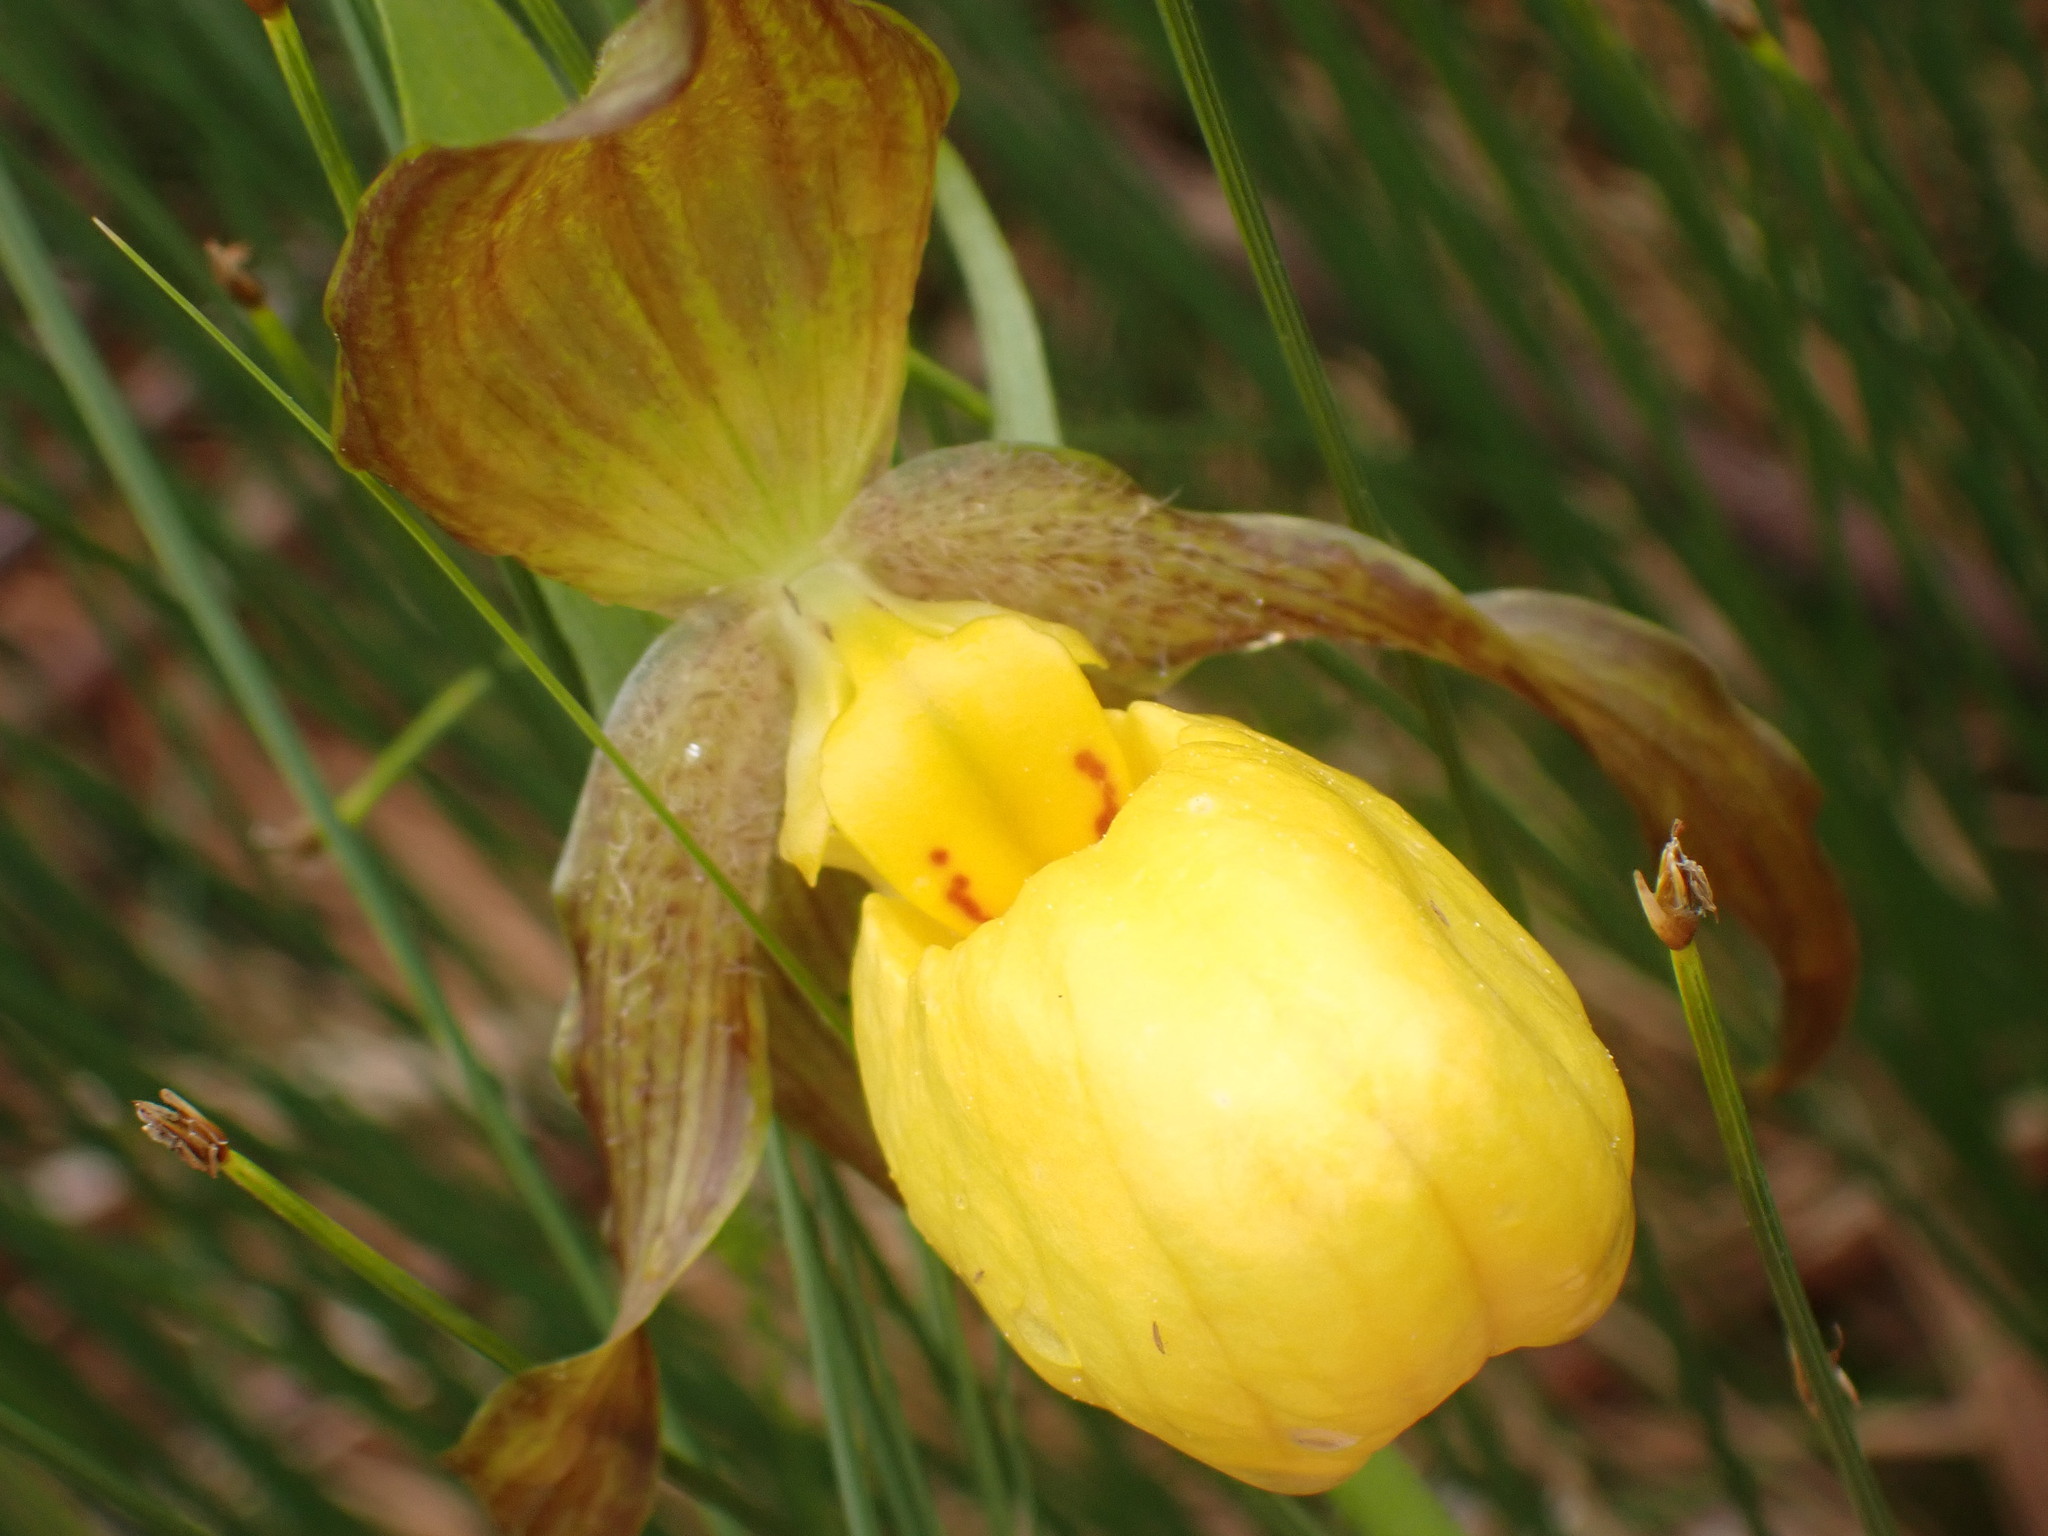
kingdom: Plantae
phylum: Tracheophyta
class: Liliopsida
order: Asparagales
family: Orchidaceae
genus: Cypripedium
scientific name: Cypripedium parviflorum
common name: American yellow lady's-slipper
